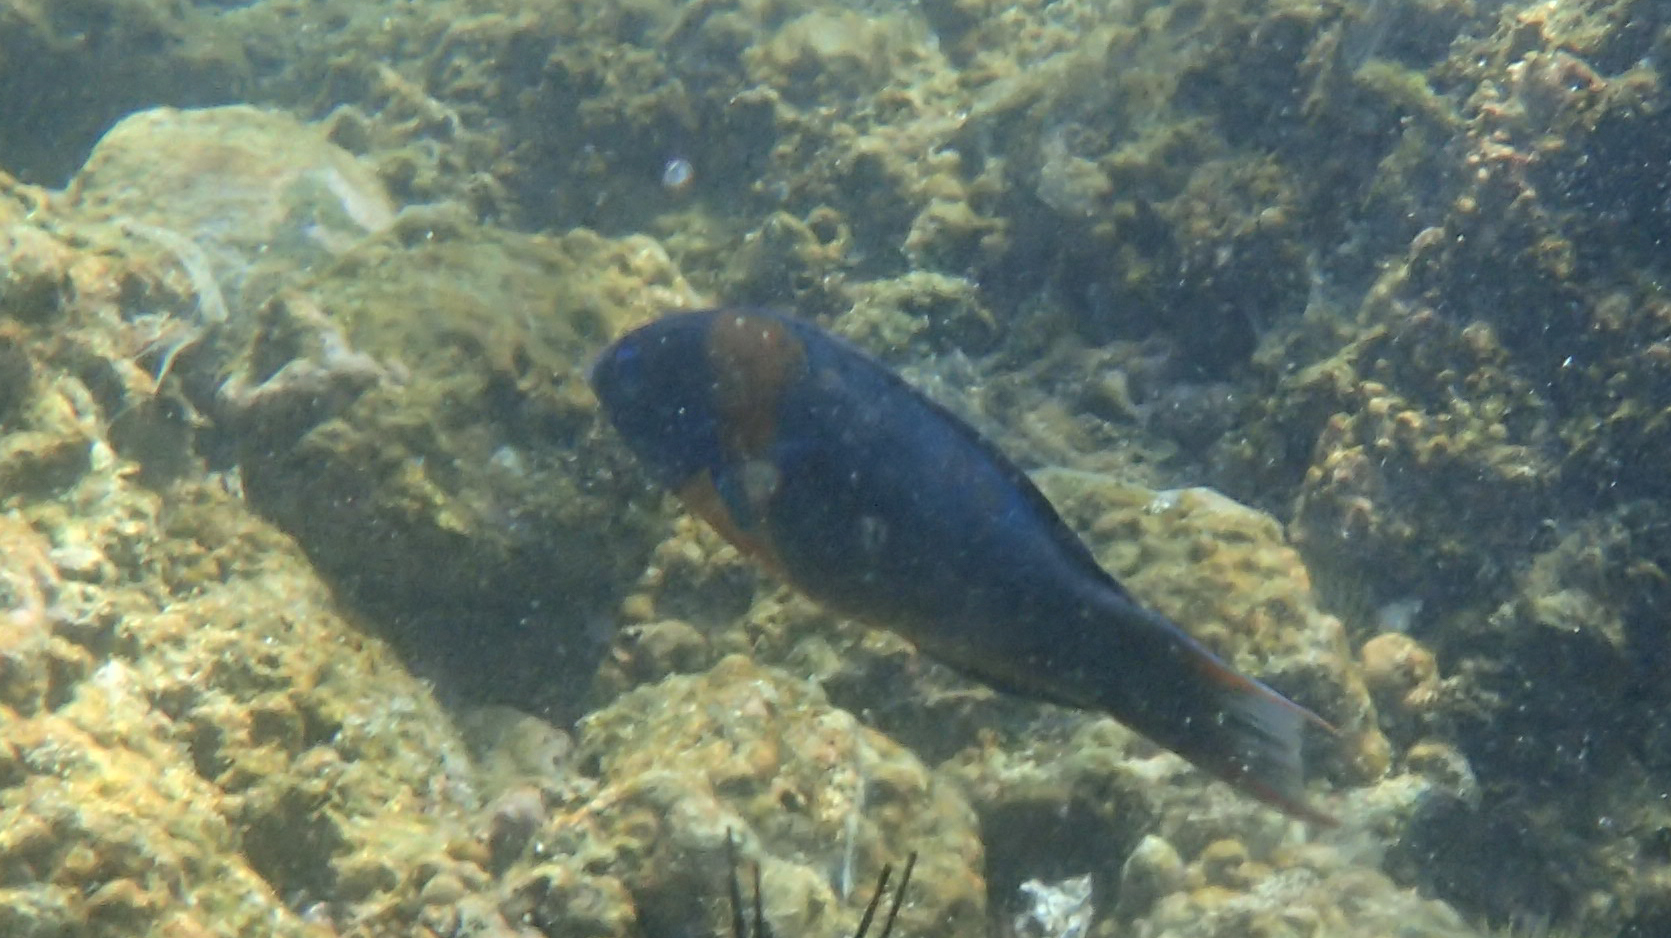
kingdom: Animalia
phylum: Chordata
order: Perciformes
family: Labridae
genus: Thalassoma
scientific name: Thalassoma duperrey
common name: Saddle wrasse
